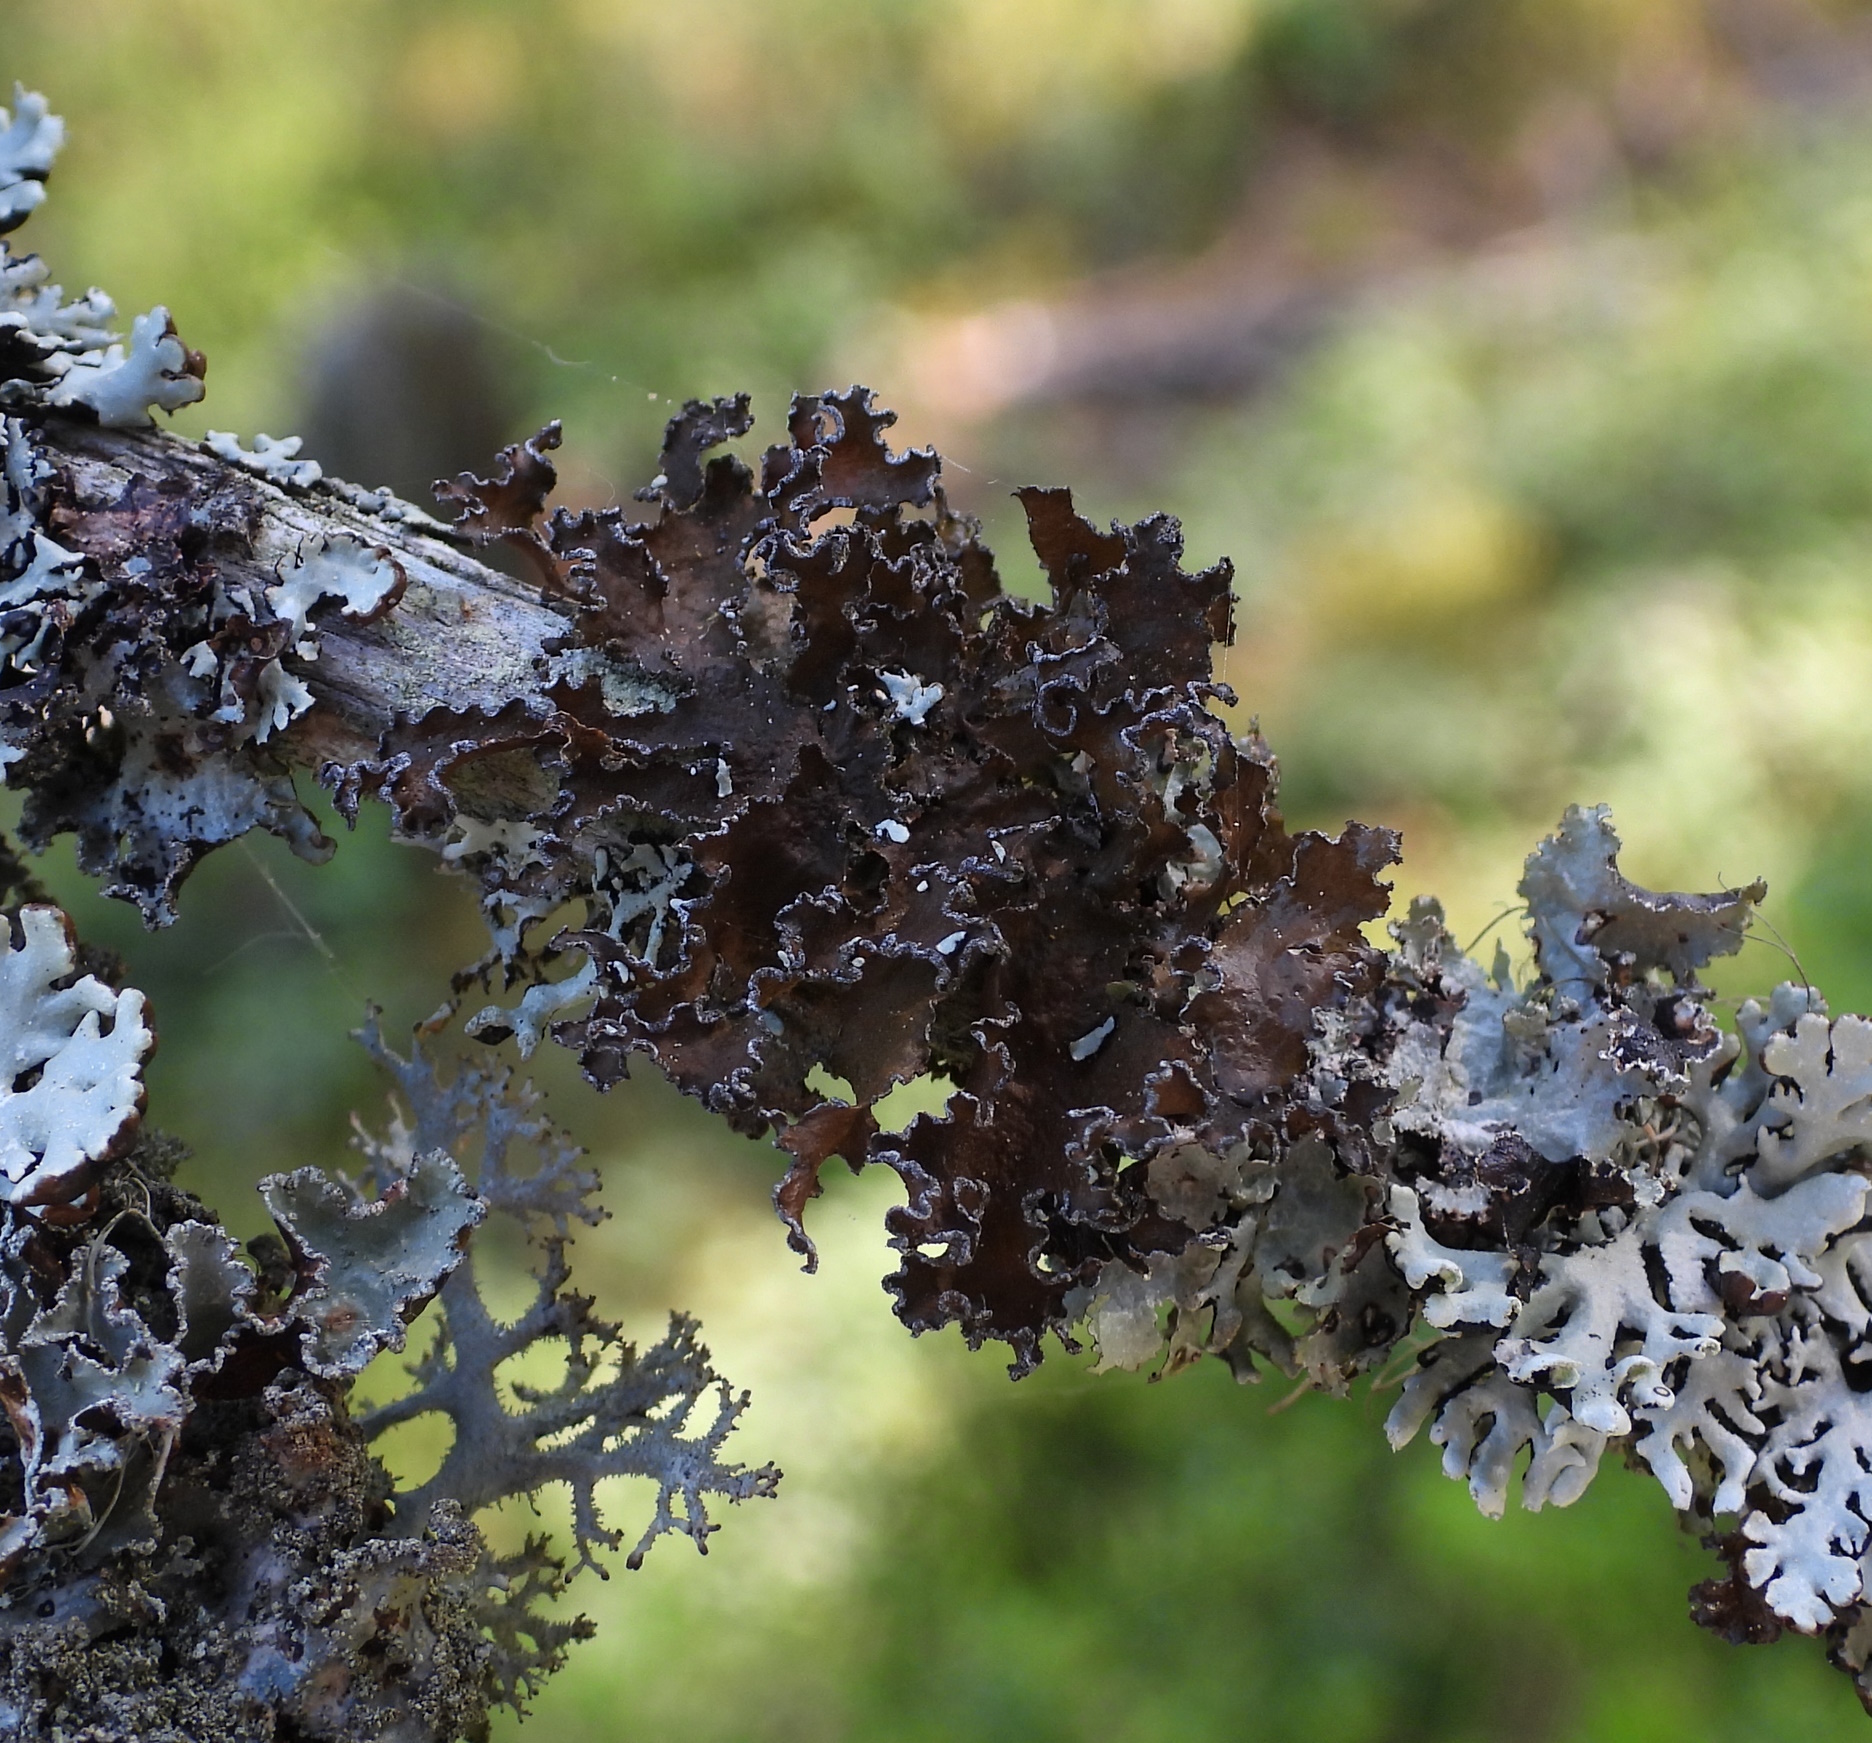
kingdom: Fungi
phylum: Ascomycota
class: Lecanoromycetes
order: Lecanorales
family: Parmeliaceae
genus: Nephromopsis
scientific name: Nephromopsis chlorophylla
